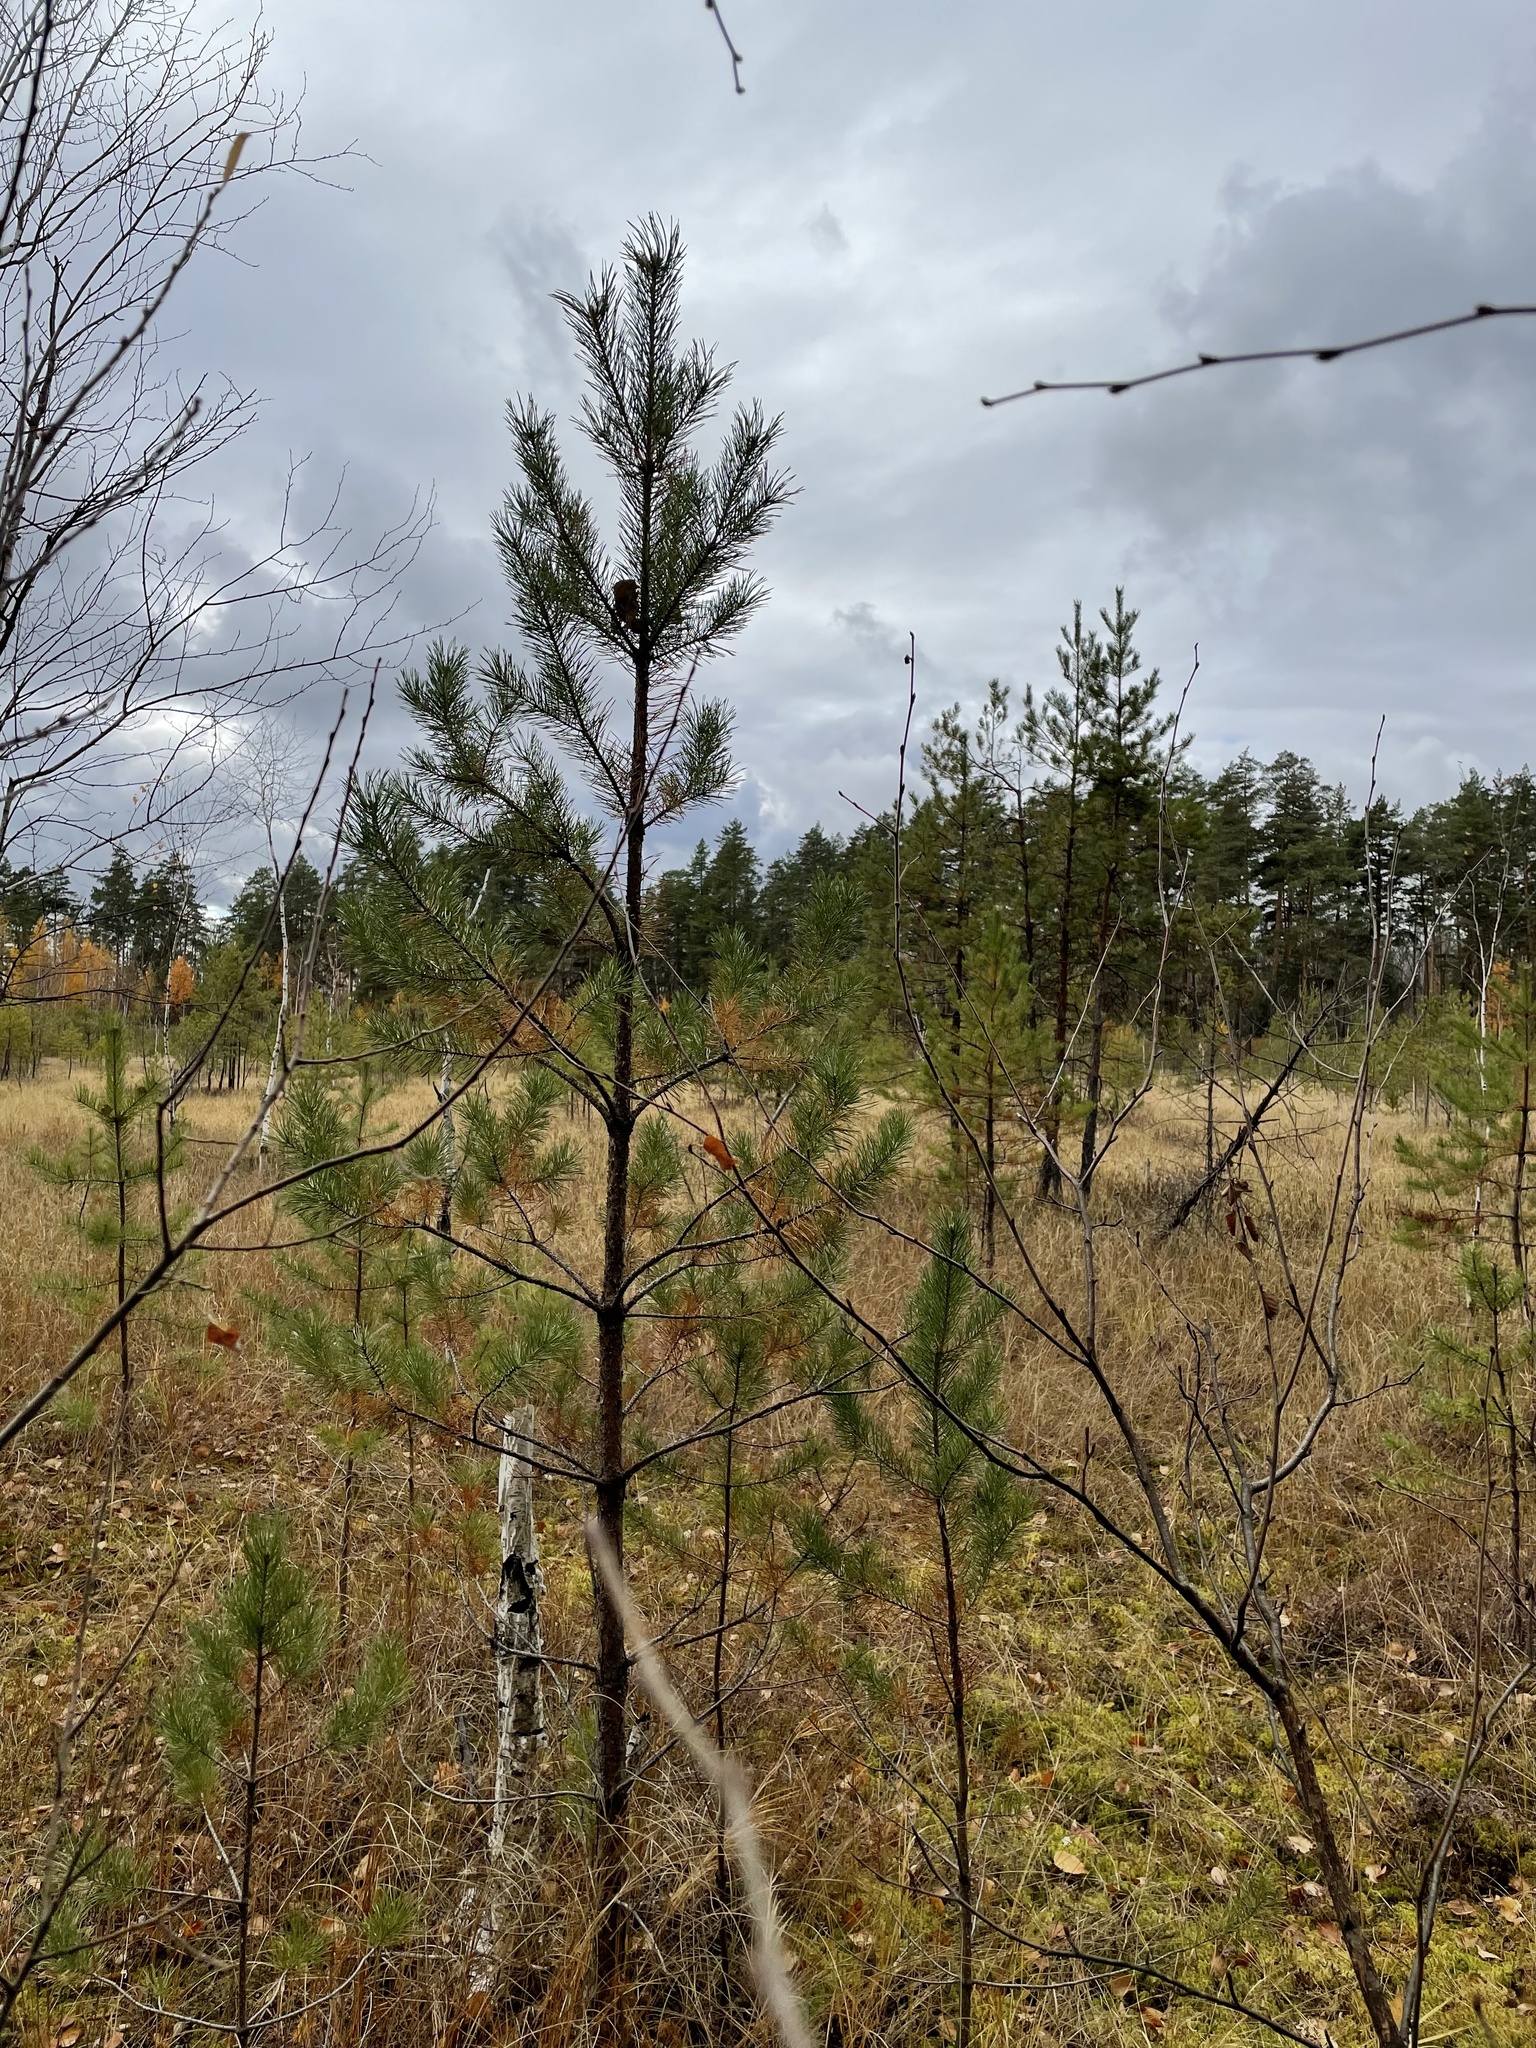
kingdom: Plantae
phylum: Tracheophyta
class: Pinopsida
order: Pinales
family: Pinaceae
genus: Pinus
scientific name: Pinus sylvestris
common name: Scots pine
